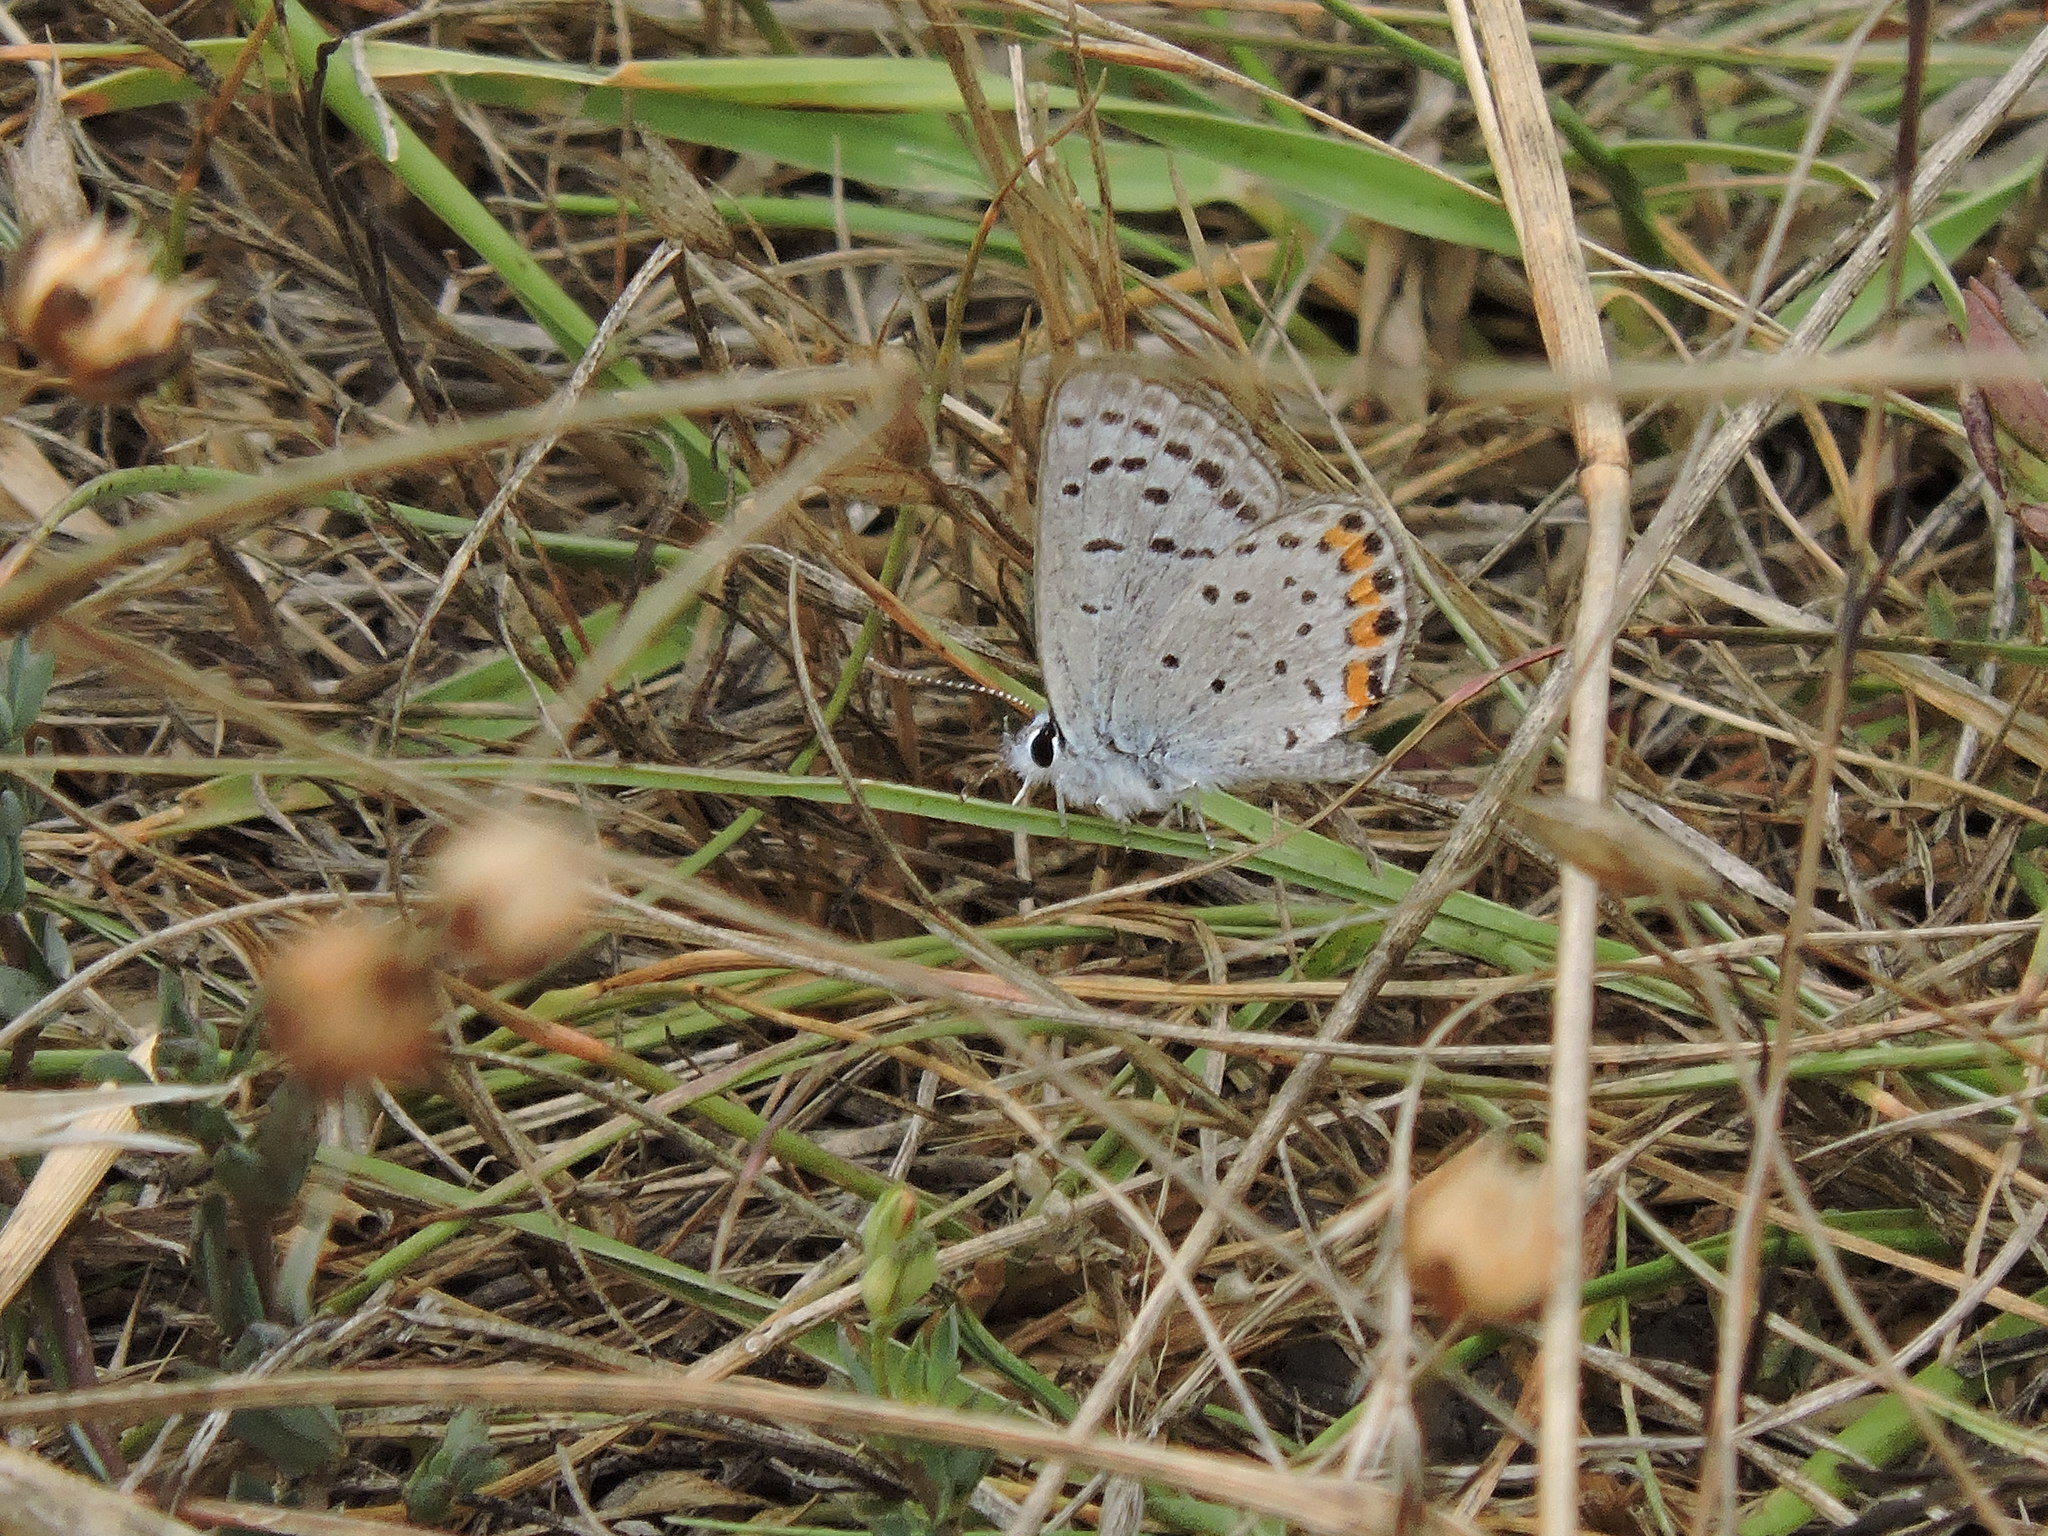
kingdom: Animalia
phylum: Arthropoda
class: Insecta
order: Lepidoptera
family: Lycaenidae
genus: Icaricia
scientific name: Icaricia acmon
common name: Acmon blue
